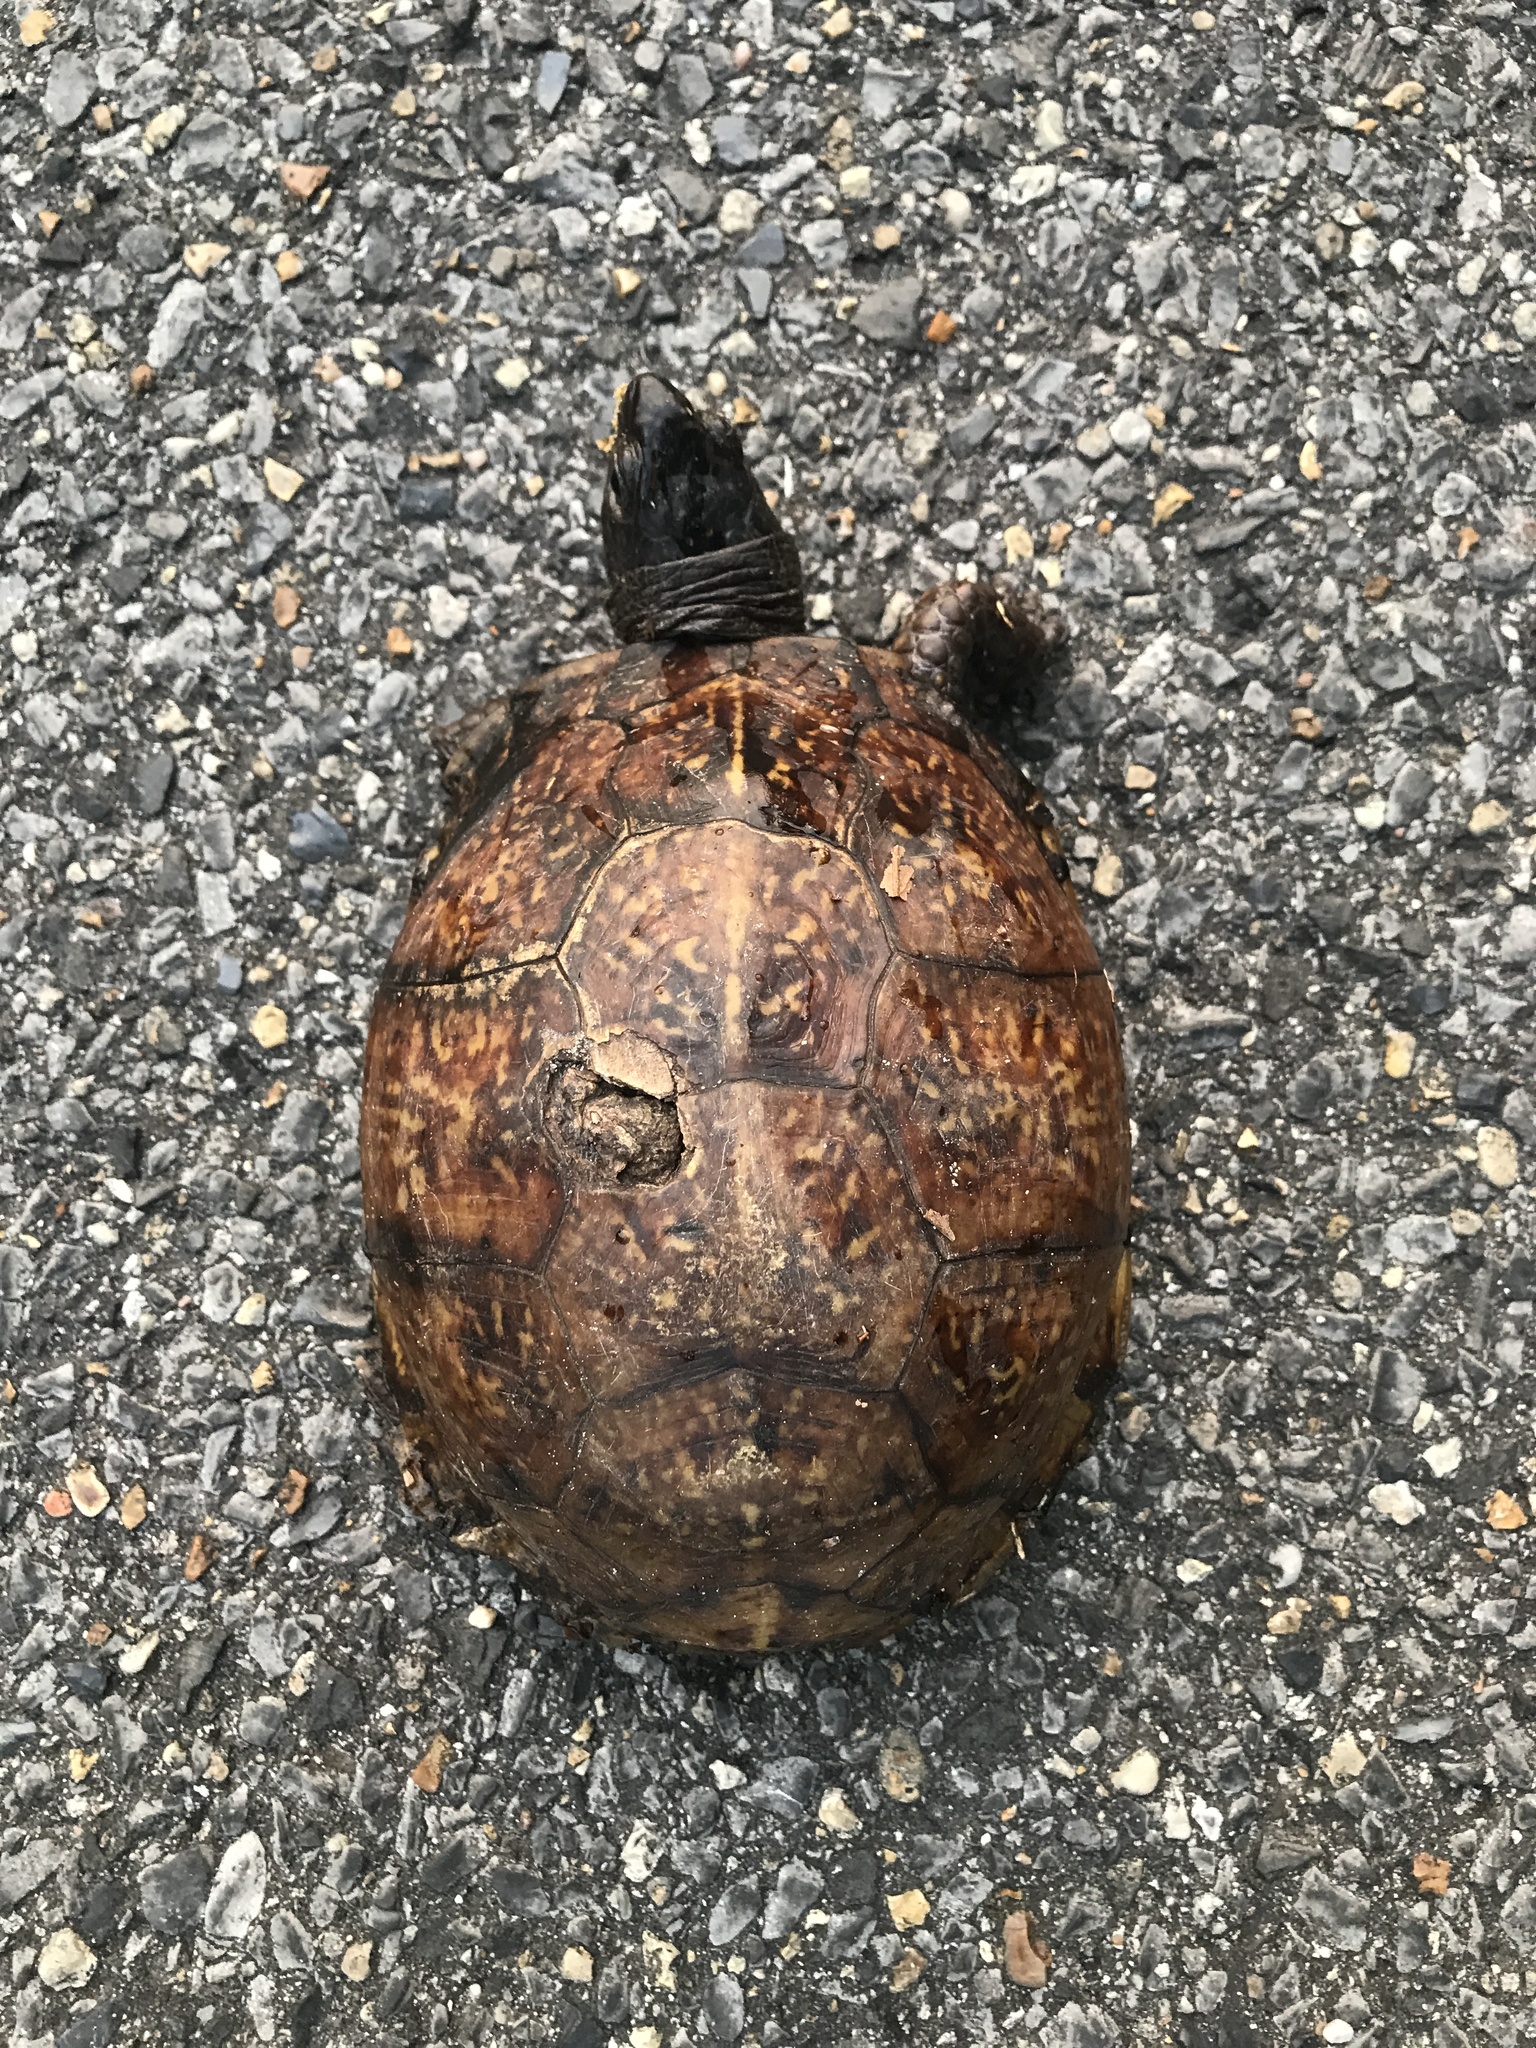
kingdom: Animalia
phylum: Chordata
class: Testudines
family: Emydidae
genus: Terrapene
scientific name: Terrapene carolina
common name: Common box turtle
